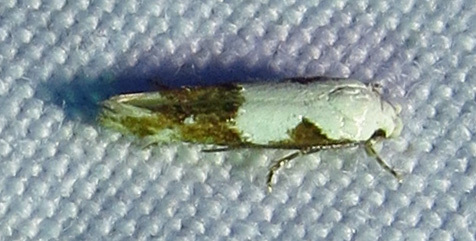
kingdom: Animalia
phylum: Arthropoda
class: Insecta
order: Lepidoptera
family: Momphidae
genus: Mompha
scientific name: Mompha circumscriptella
